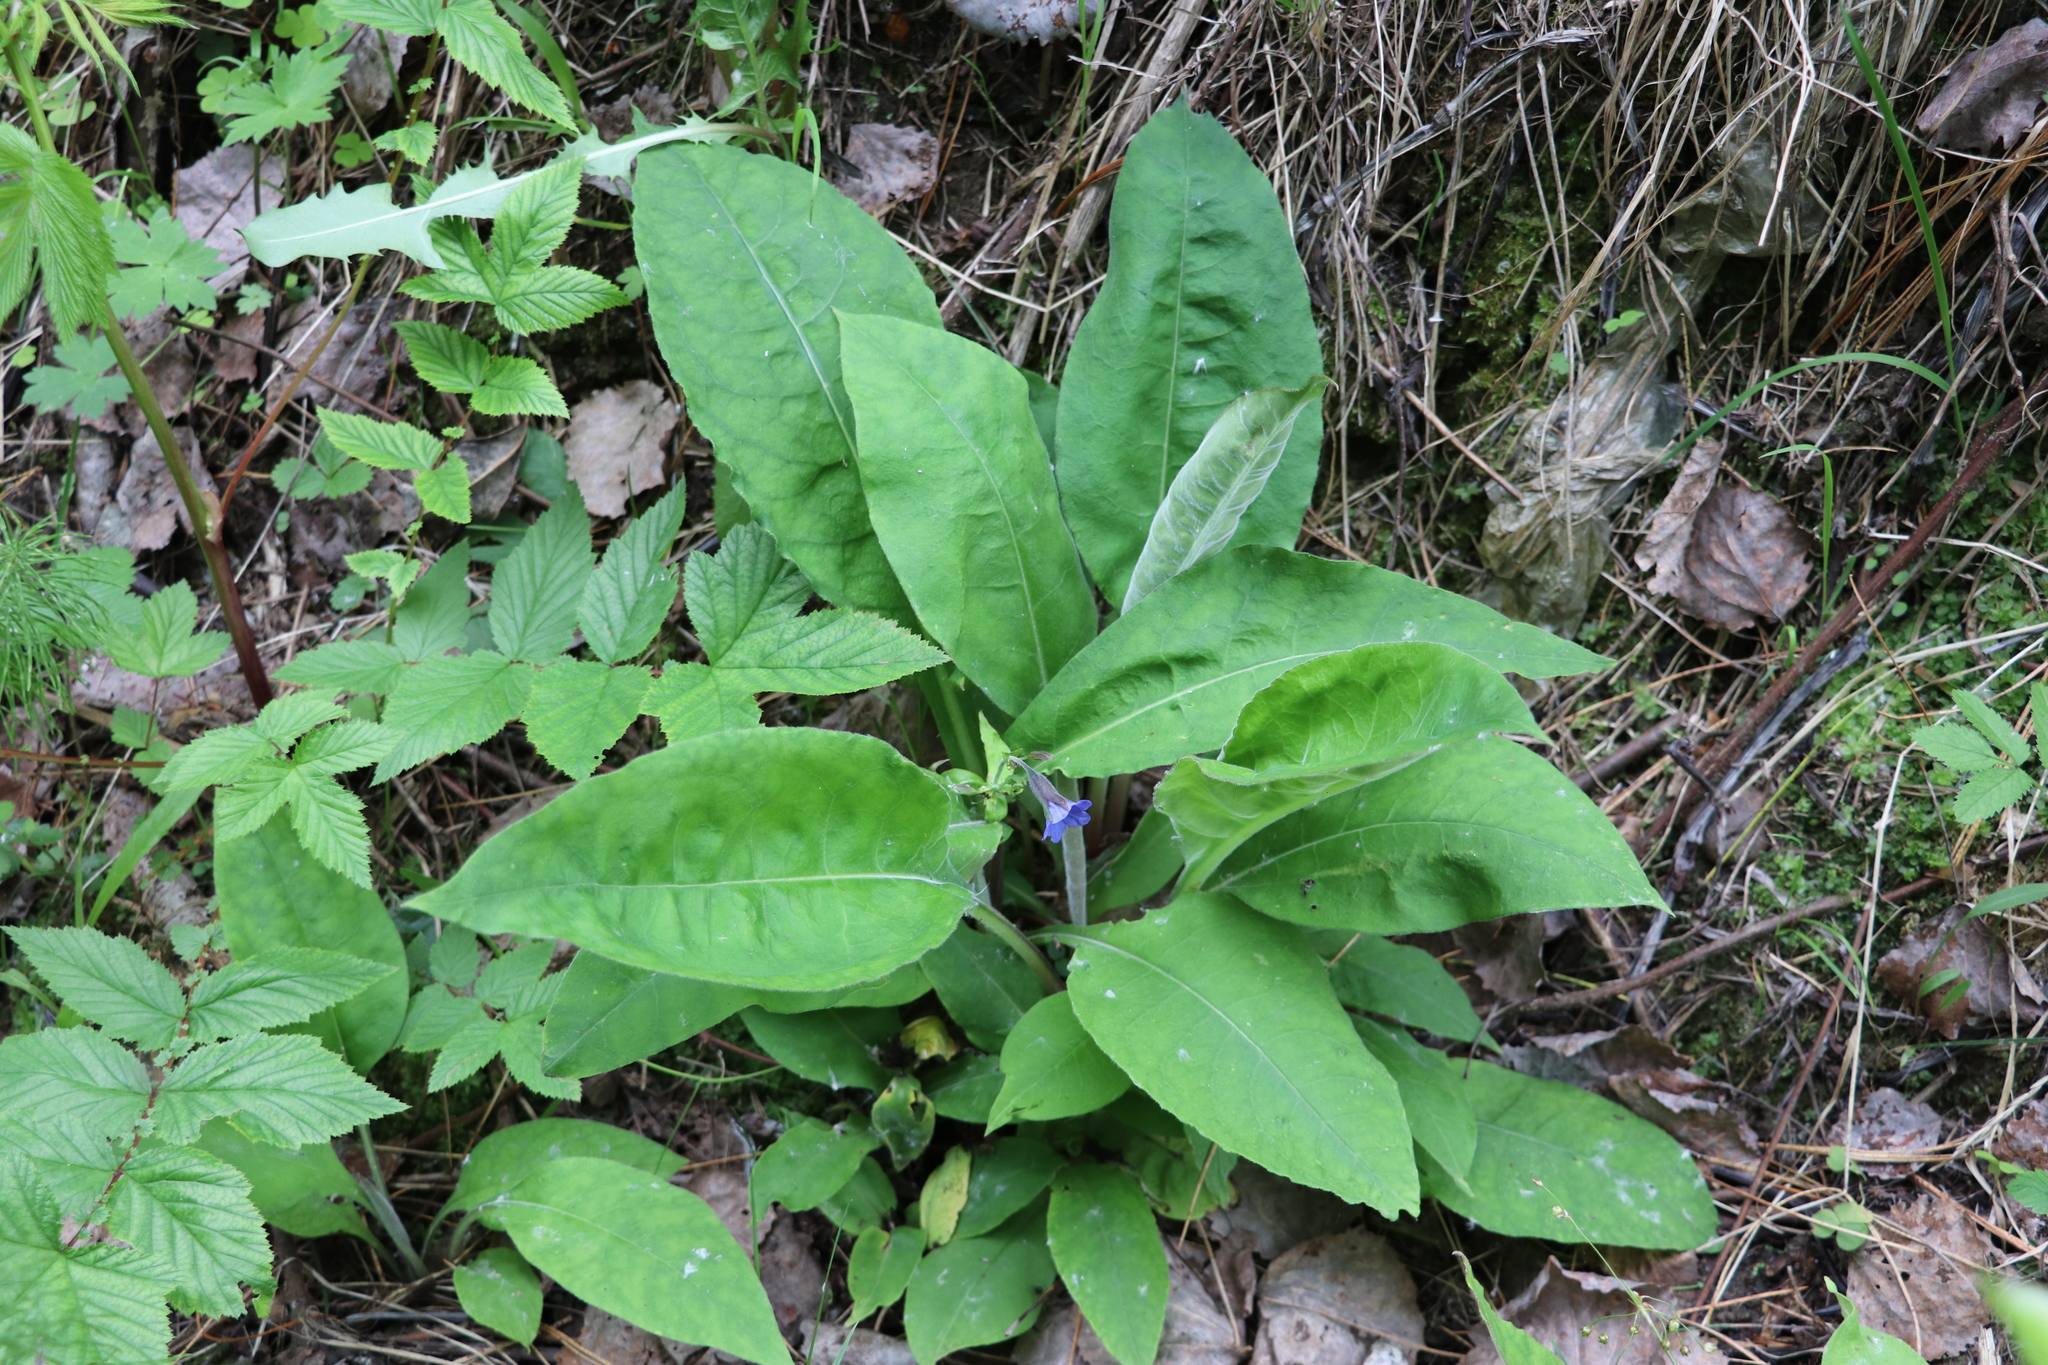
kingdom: Plantae
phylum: Tracheophyta
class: Magnoliopsida
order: Boraginales
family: Boraginaceae
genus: Pulmonaria
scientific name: Pulmonaria mollis
